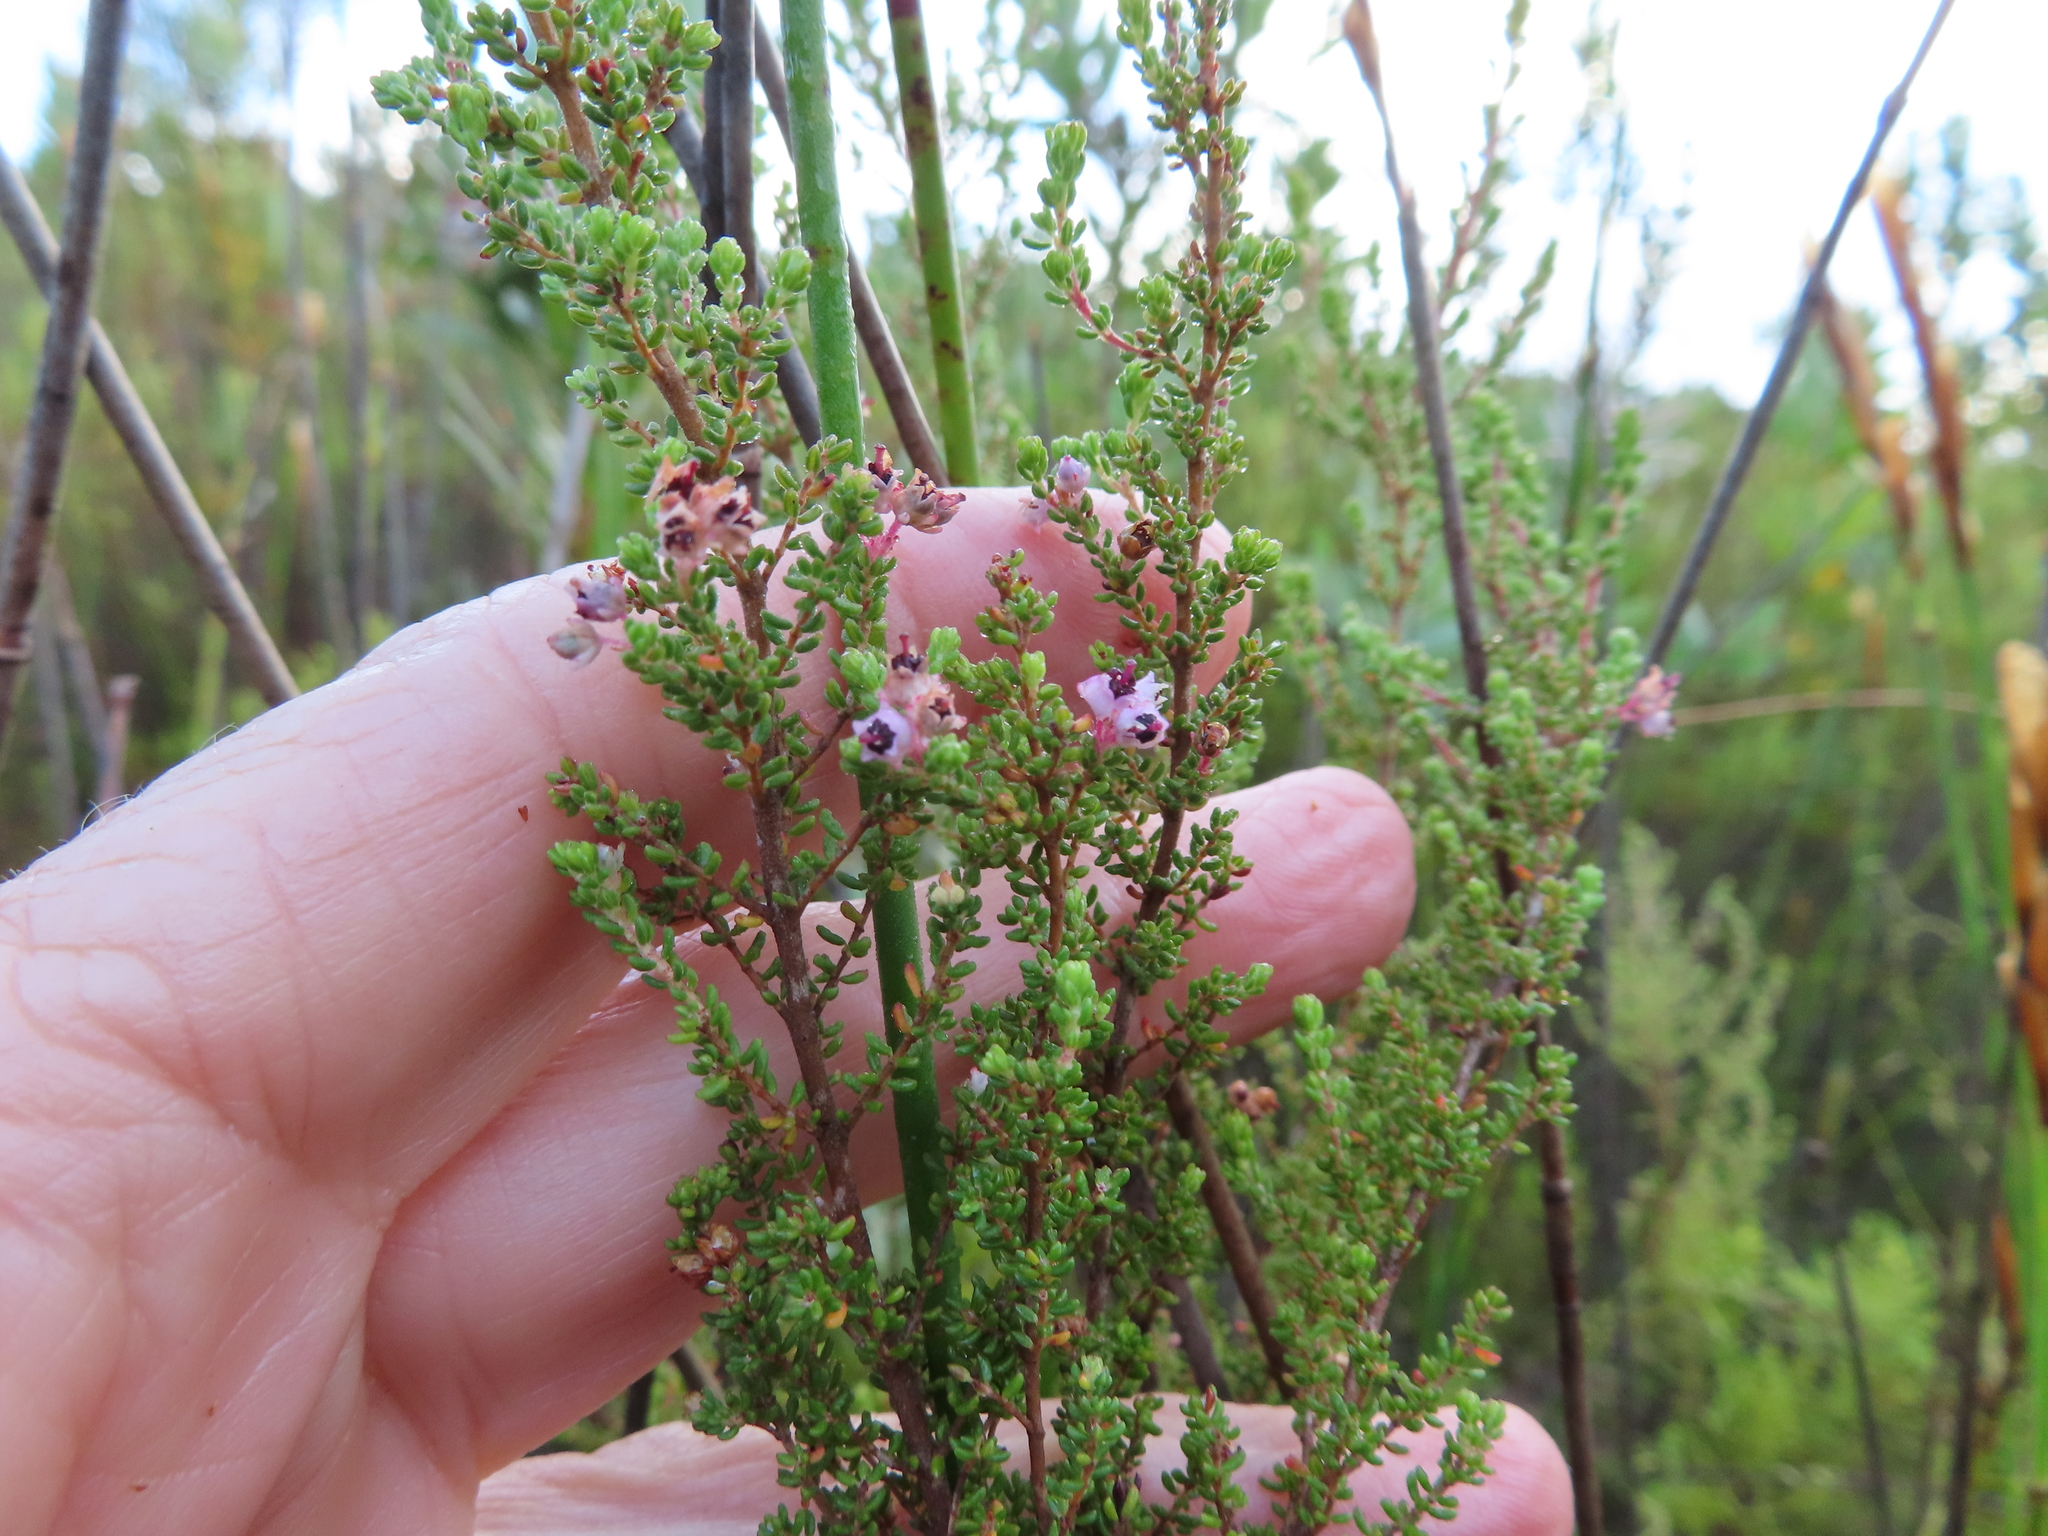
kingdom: Plantae
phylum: Tracheophyta
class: Magnoliopsida
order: Ericales
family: Ericaceae
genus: Erica
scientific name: Erica pubigera
